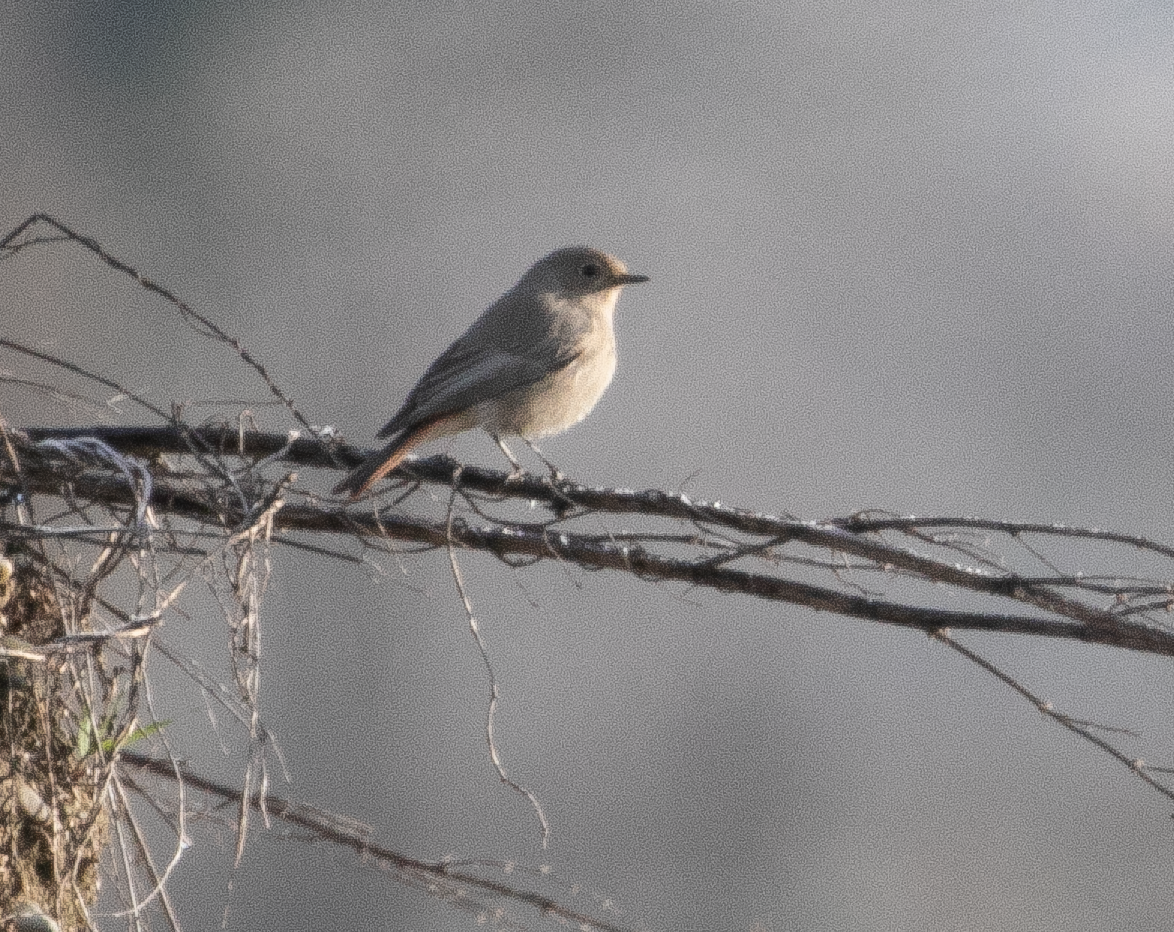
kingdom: Animalia
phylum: Chordata
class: Aves
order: Passeriformes
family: Muscicapidae
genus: Phoenicurus
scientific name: Phoenicurus ochruros
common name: Black redstart
